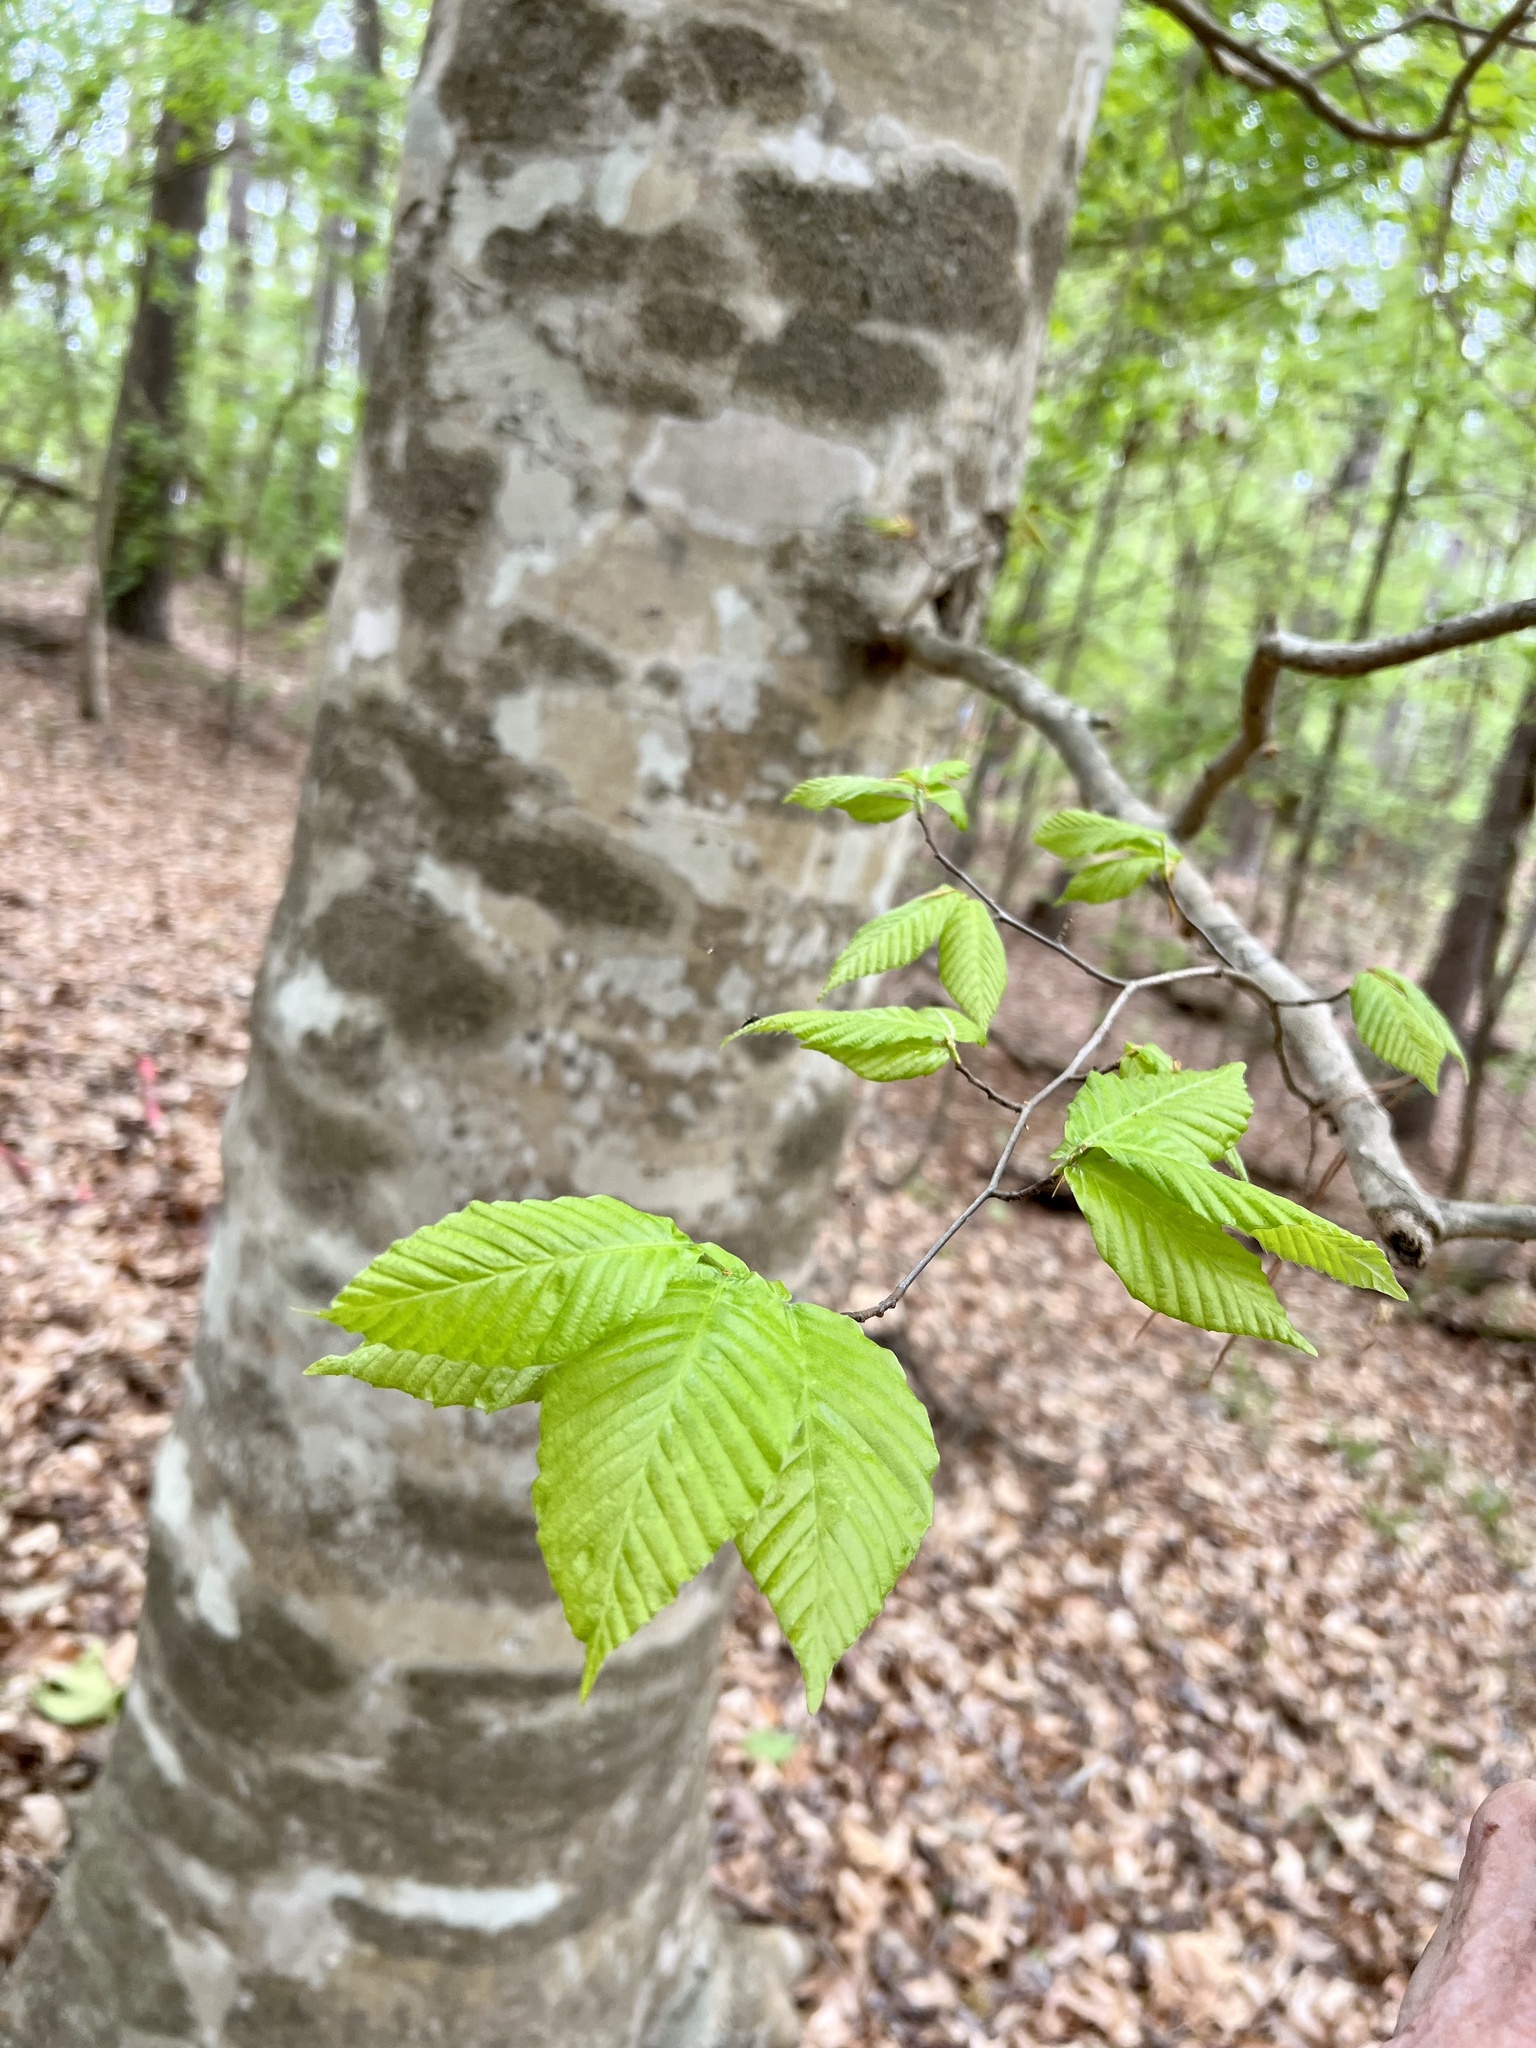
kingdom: Plantae
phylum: Tracheophyta
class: Magnoliopsida
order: Fagales
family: Fagaceae
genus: Fagus
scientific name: Fagus grandifolia
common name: American beech
